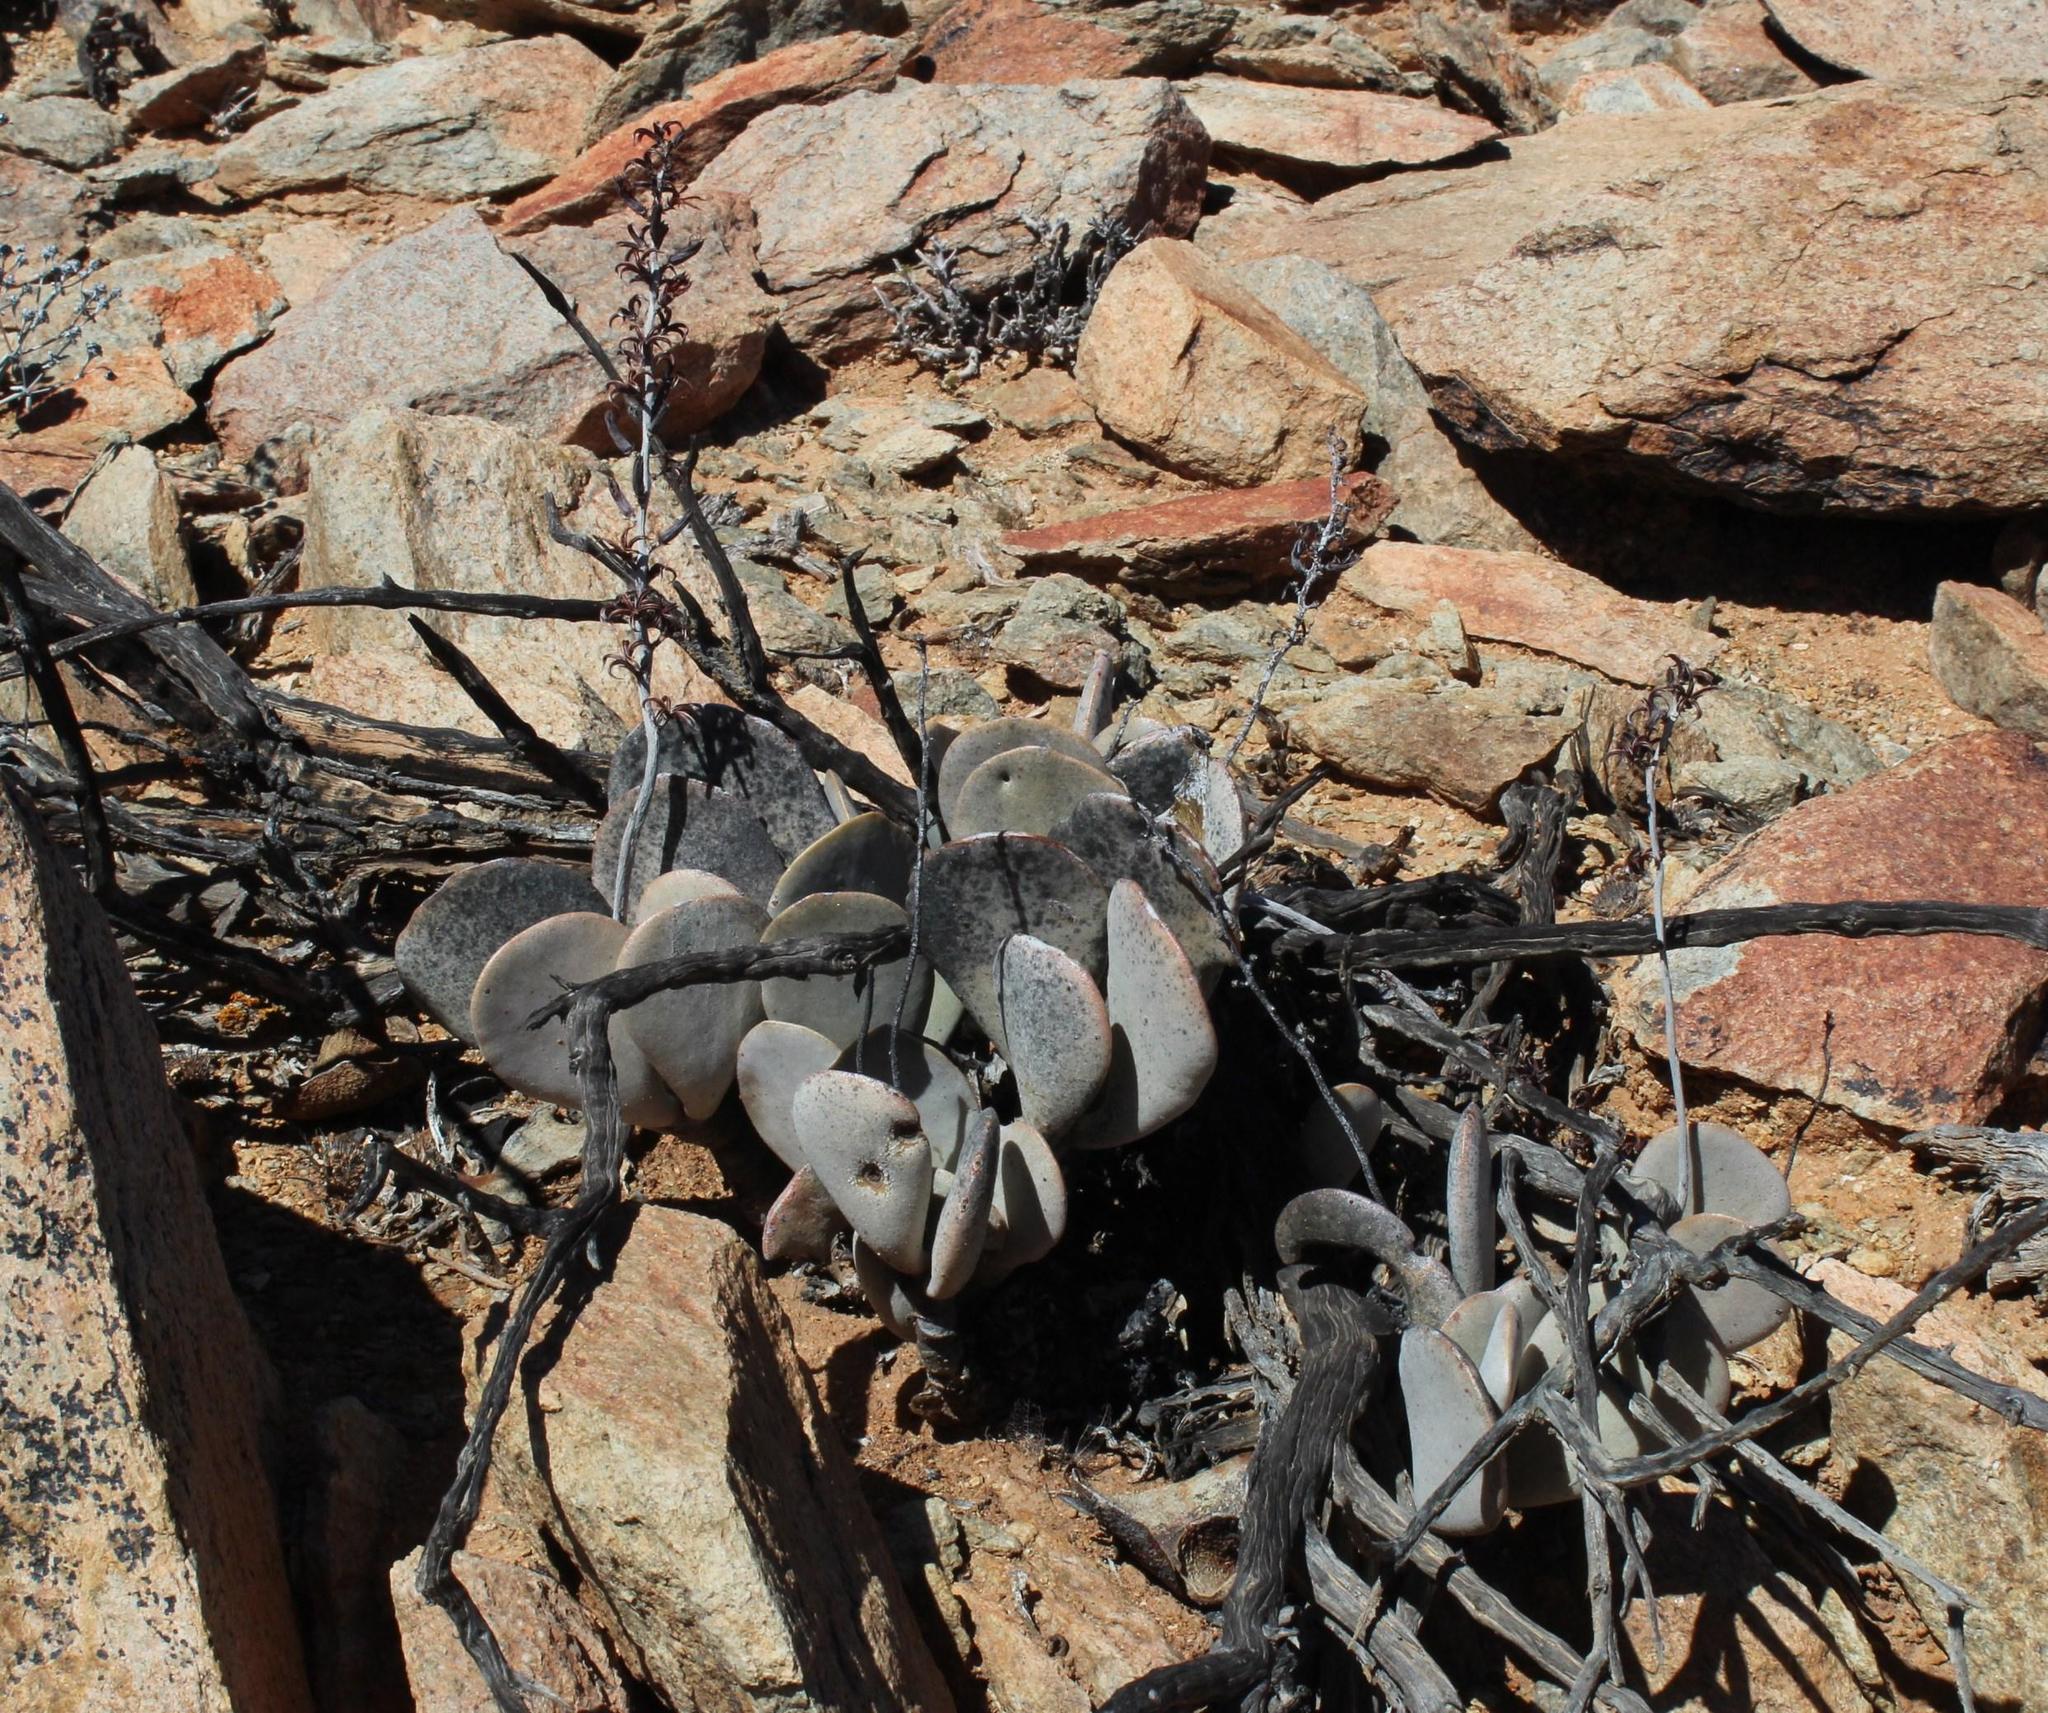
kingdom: Plantae
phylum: Tracheophyta
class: Magnoliopsida
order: Saxifragales
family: Crassulaceae
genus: Adromischus
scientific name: Adromischus alstonii
